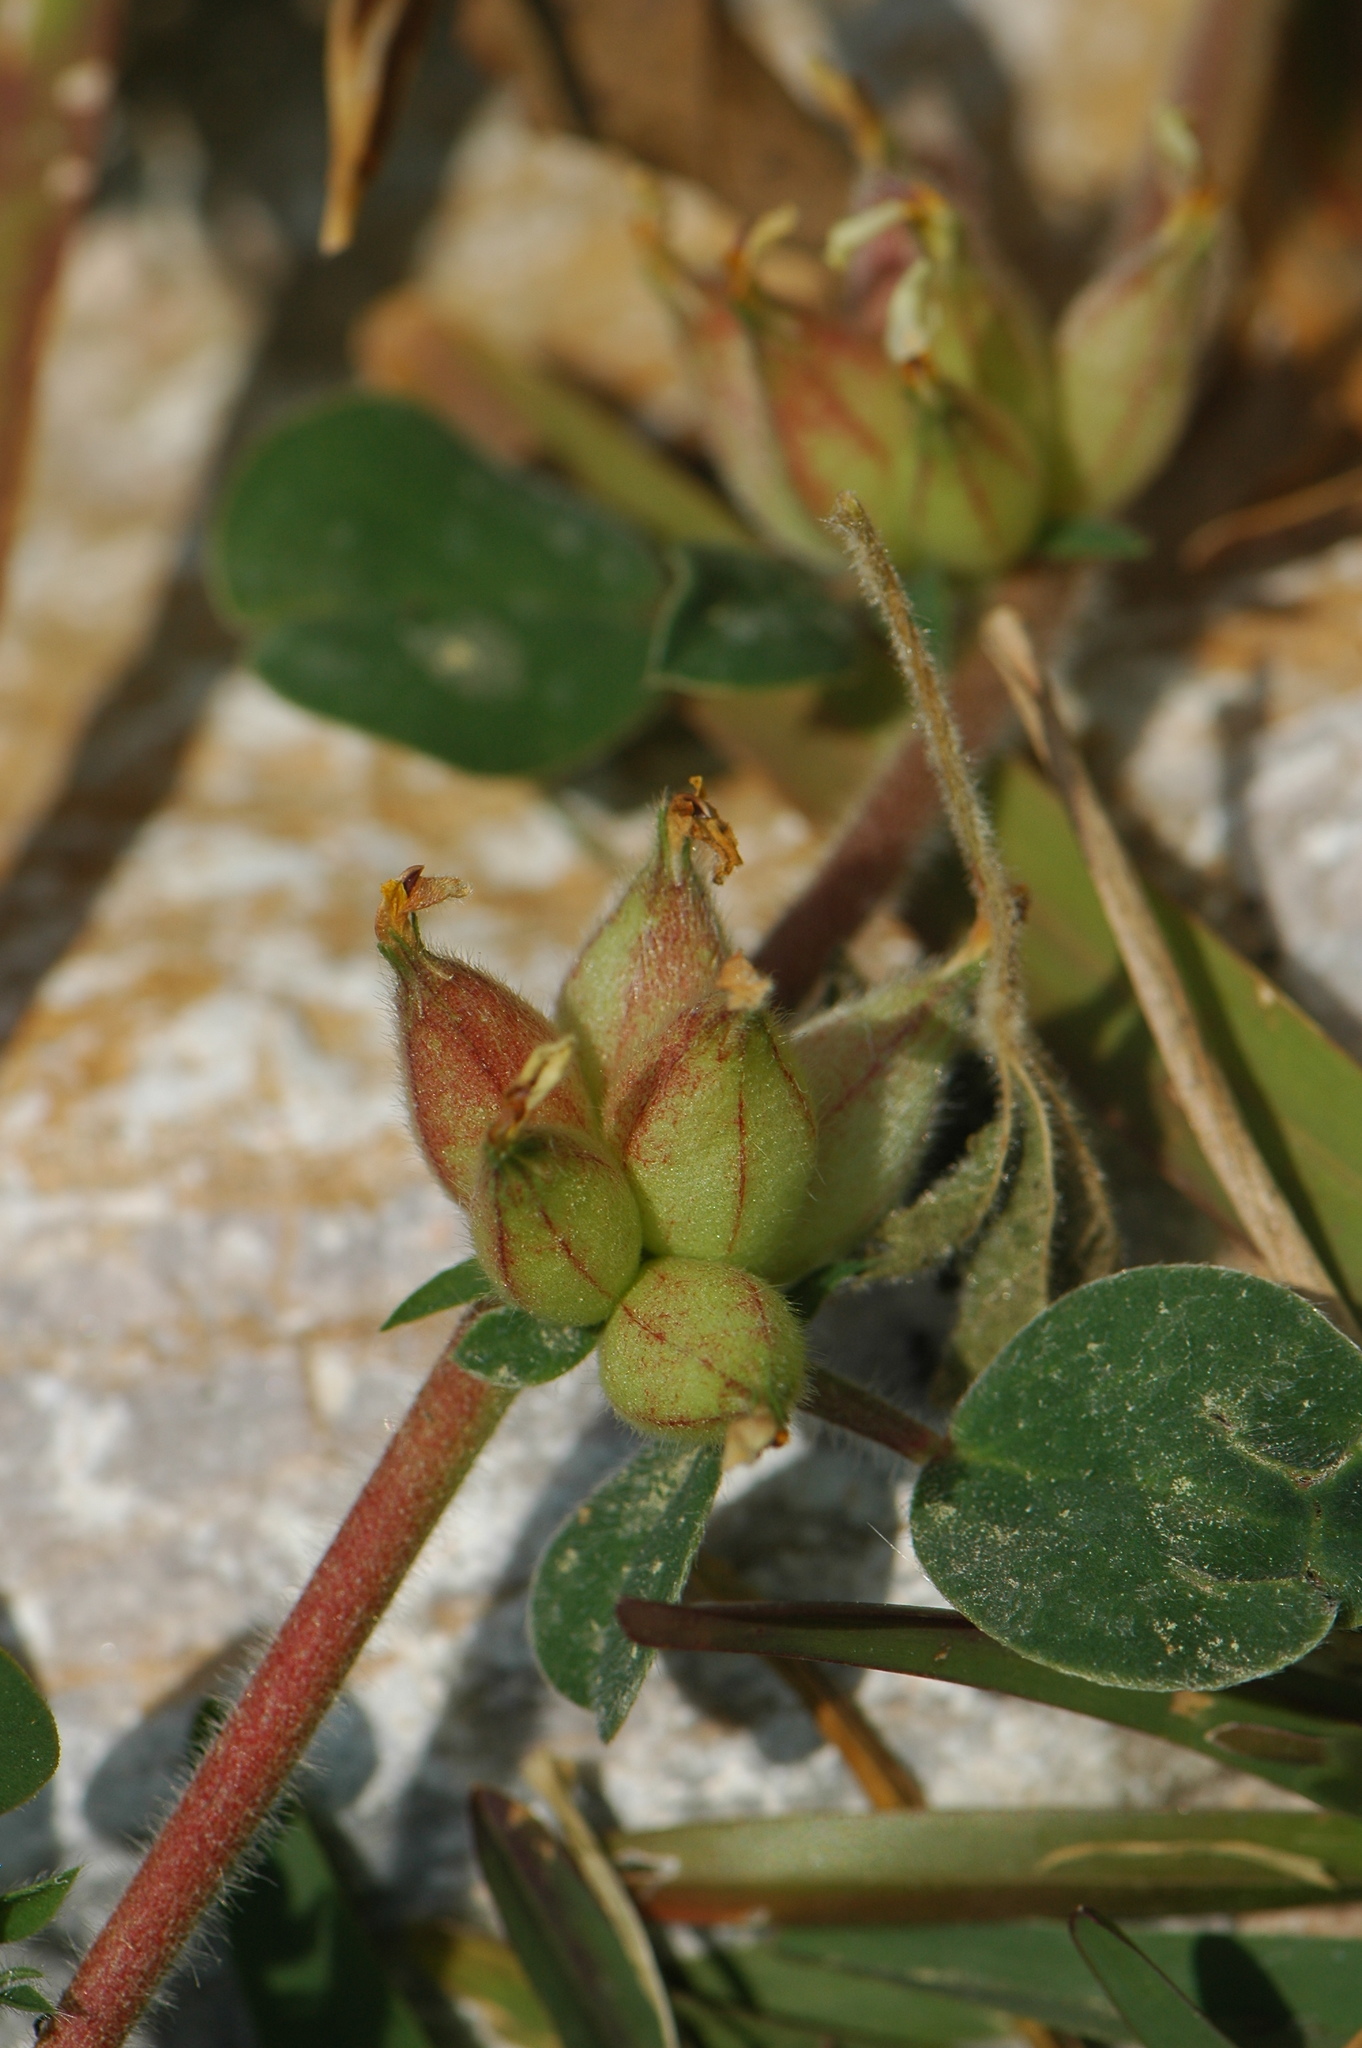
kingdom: Plantae
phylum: Tracheophyta
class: Magnoliopsida
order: Fabales
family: Fabaceae
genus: Tripodion
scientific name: Tripodion tetraphyllum
